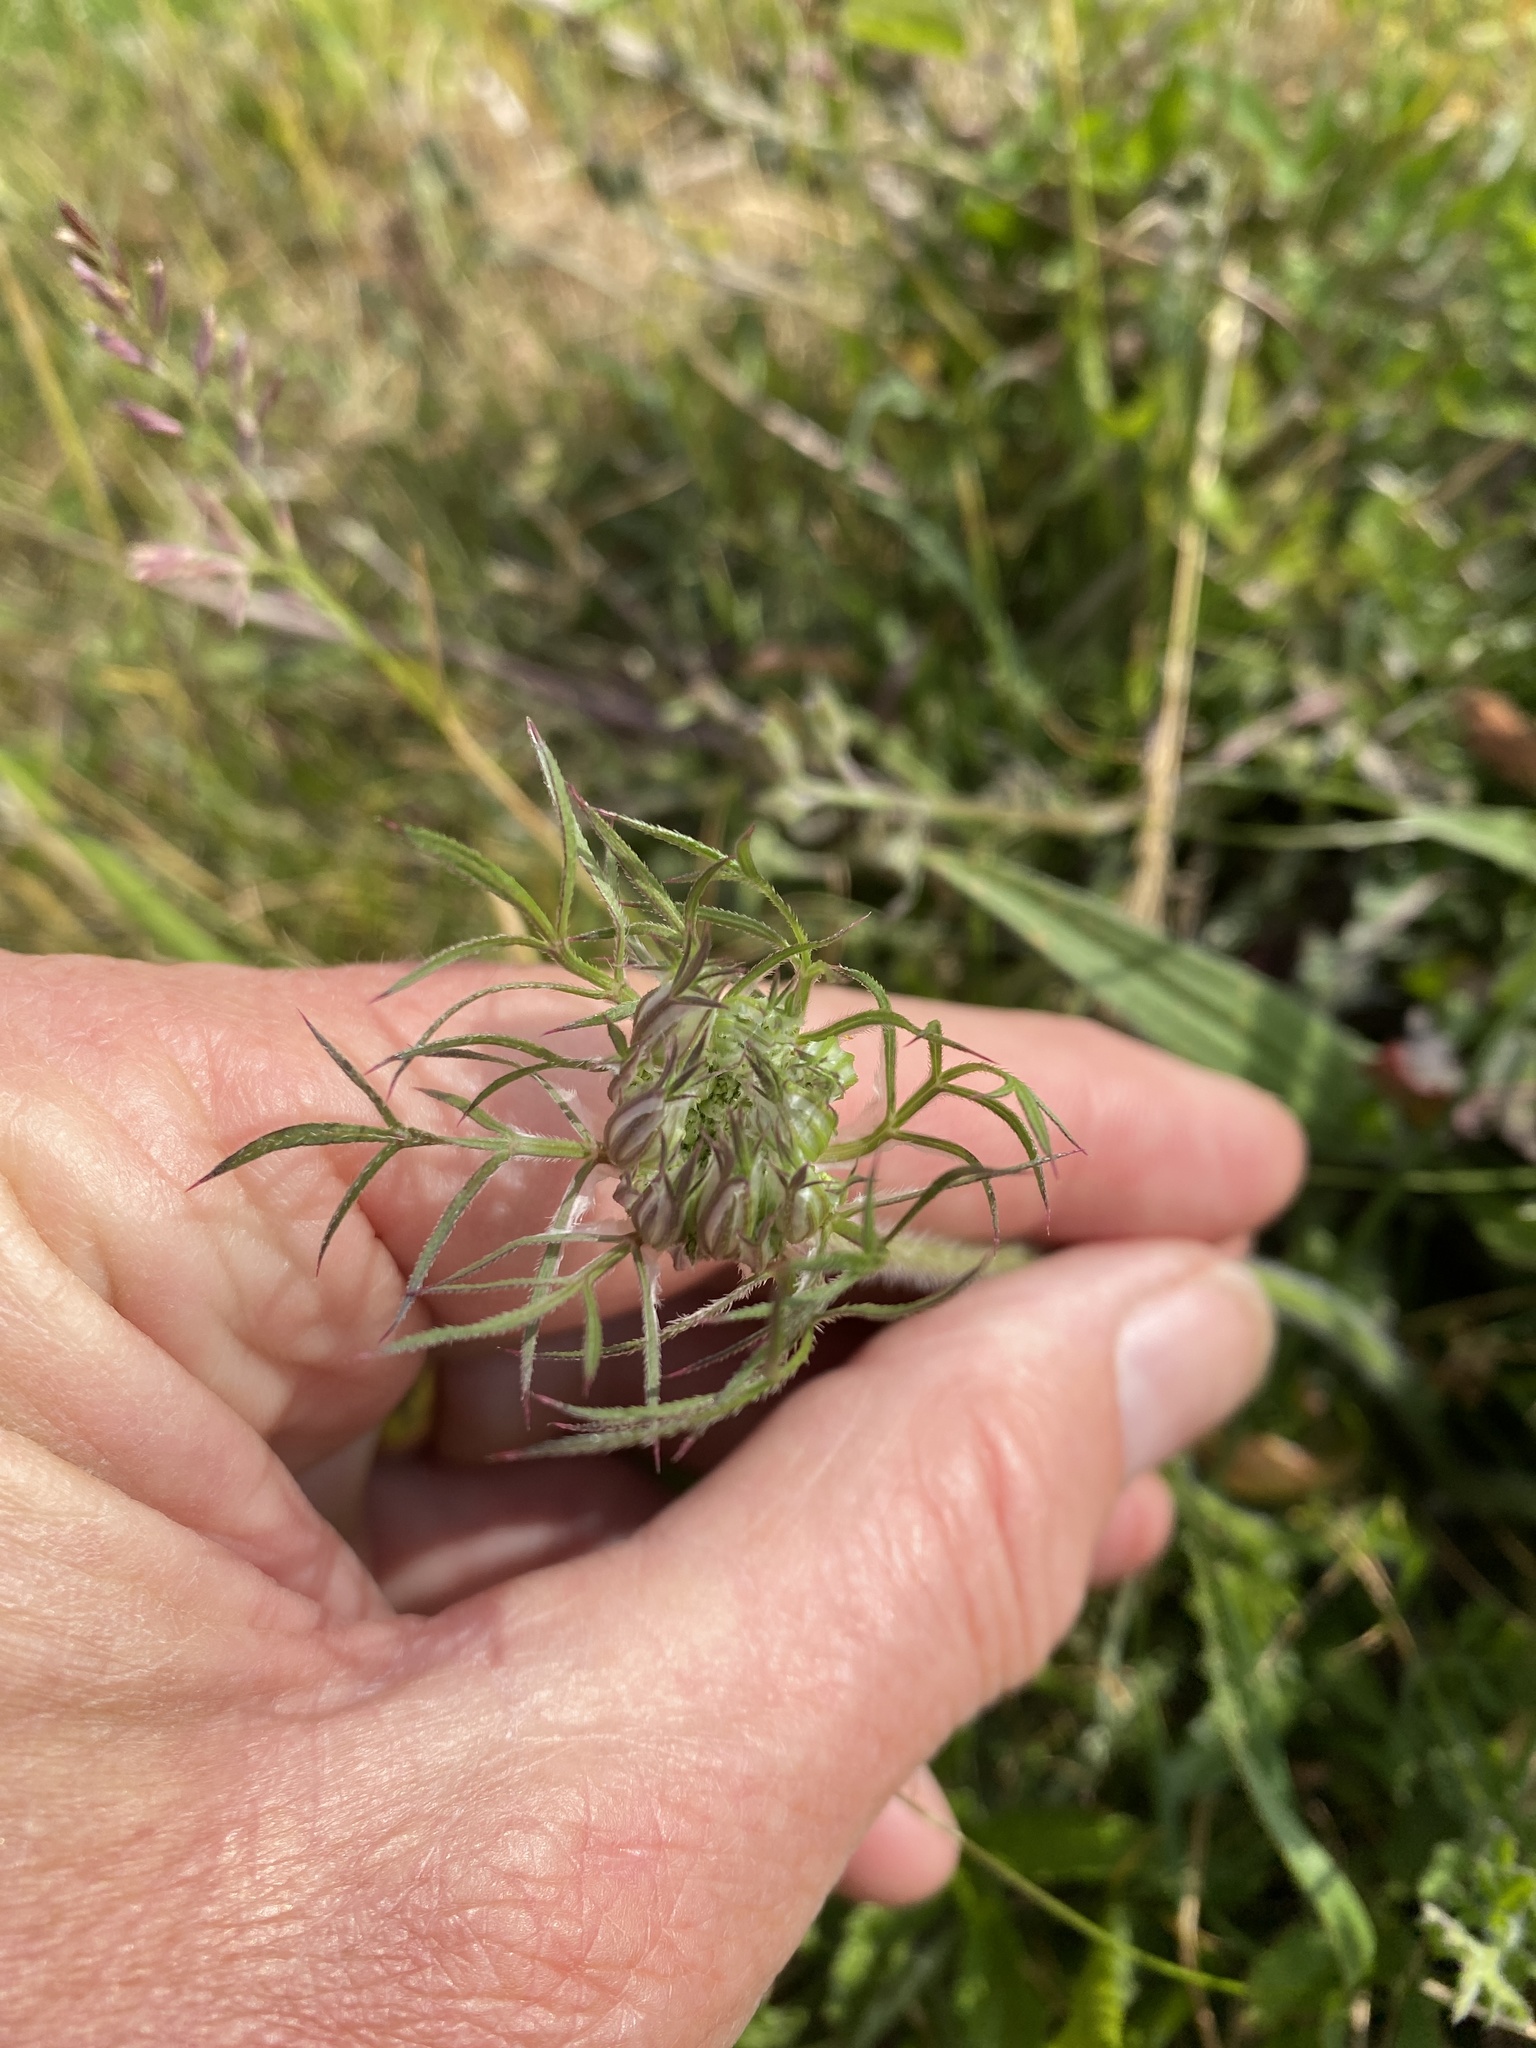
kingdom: Plantae
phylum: Tracheophyta
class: Magnoliopsida
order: Apiales
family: Apiaceae
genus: Daucus
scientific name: Daucus carota
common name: Wild carrot
